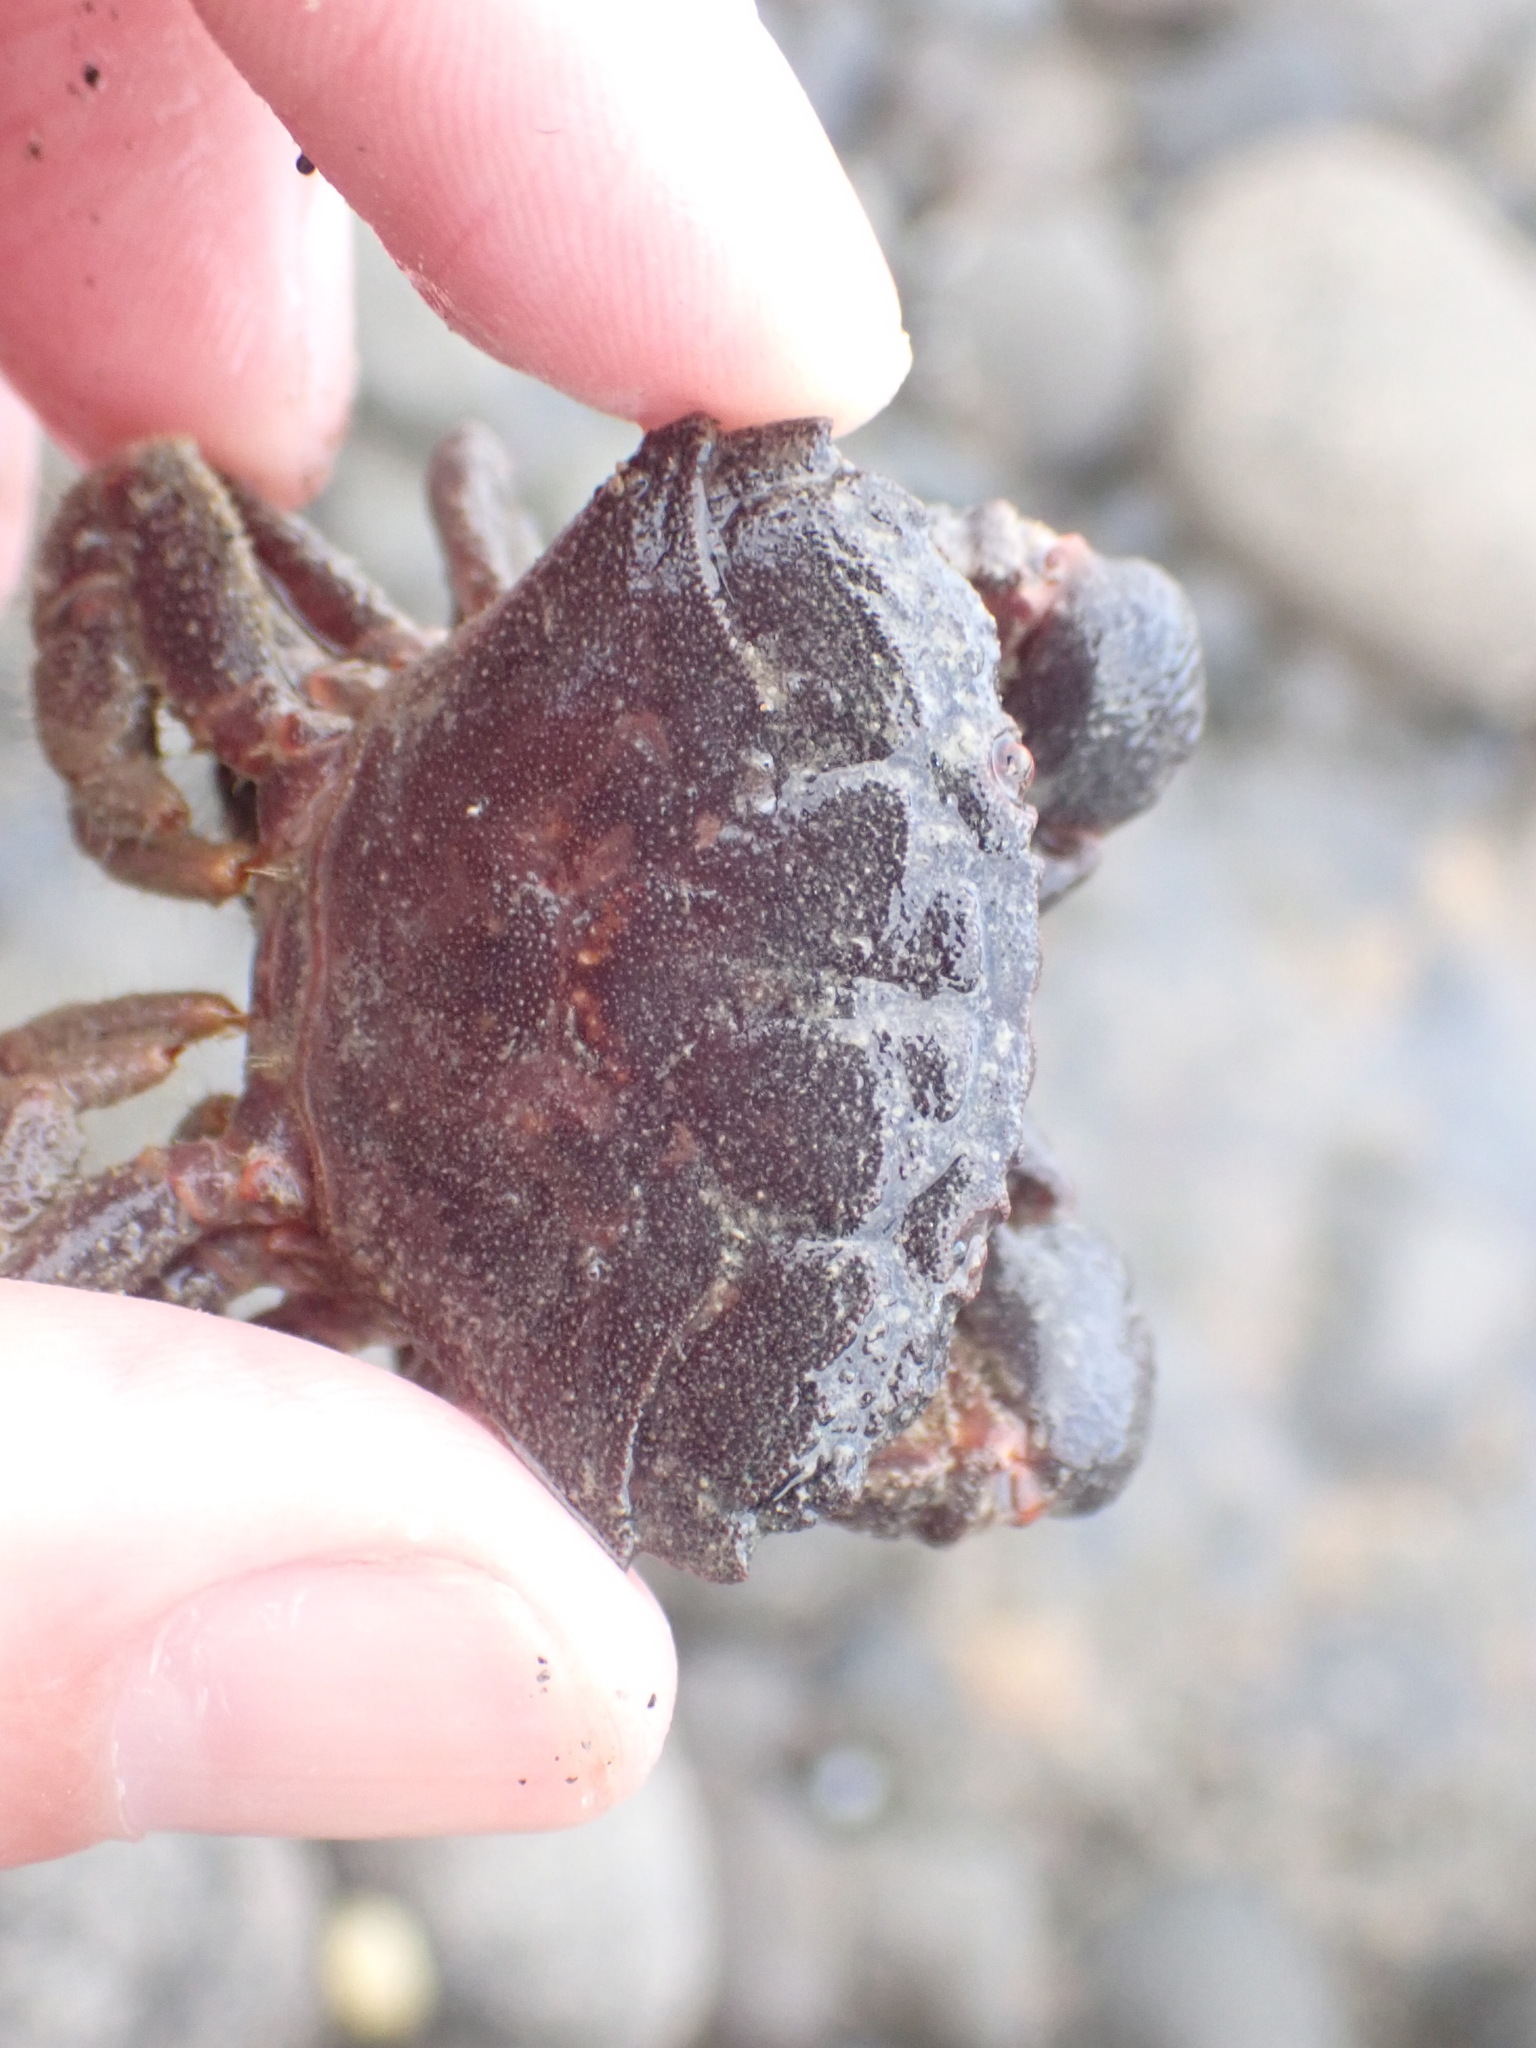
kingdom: Animalia
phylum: Arthropoda
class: Malacostraca
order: Decapoda
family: Oziidae
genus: Ozius
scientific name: Ozius deplanatus
